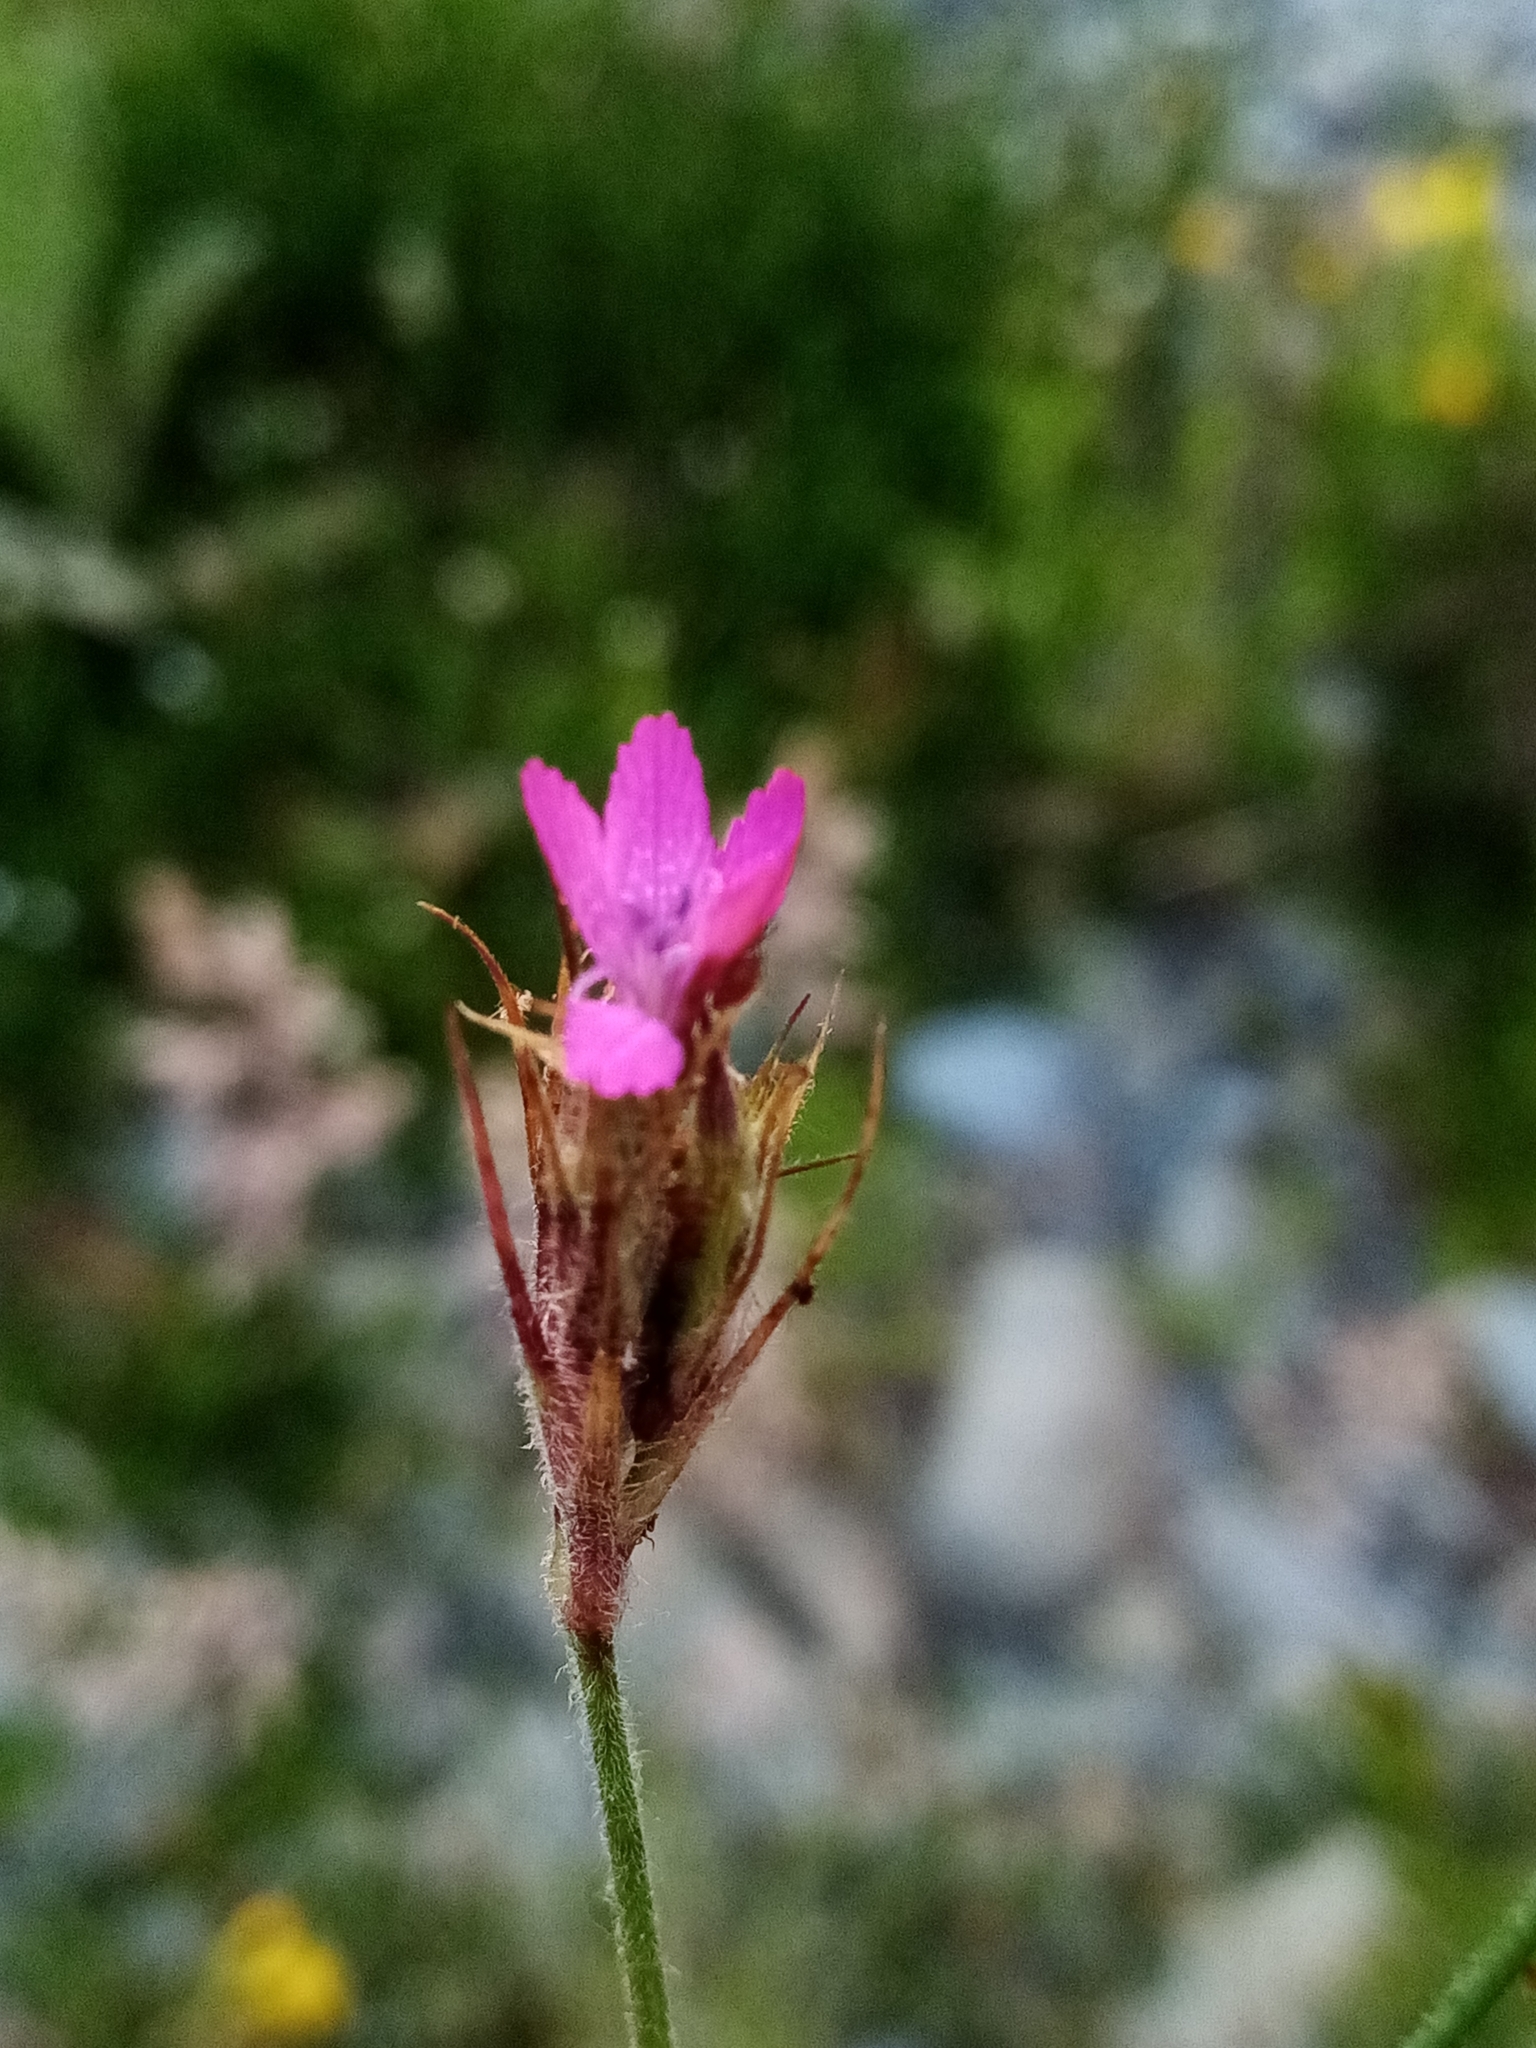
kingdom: Plantae
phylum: Tracheophyta
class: Magnoliopsida
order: Caryophyllales
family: Caryophyllaceae
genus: Dianthus
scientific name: Dianthus armeria
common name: Deptford pink
